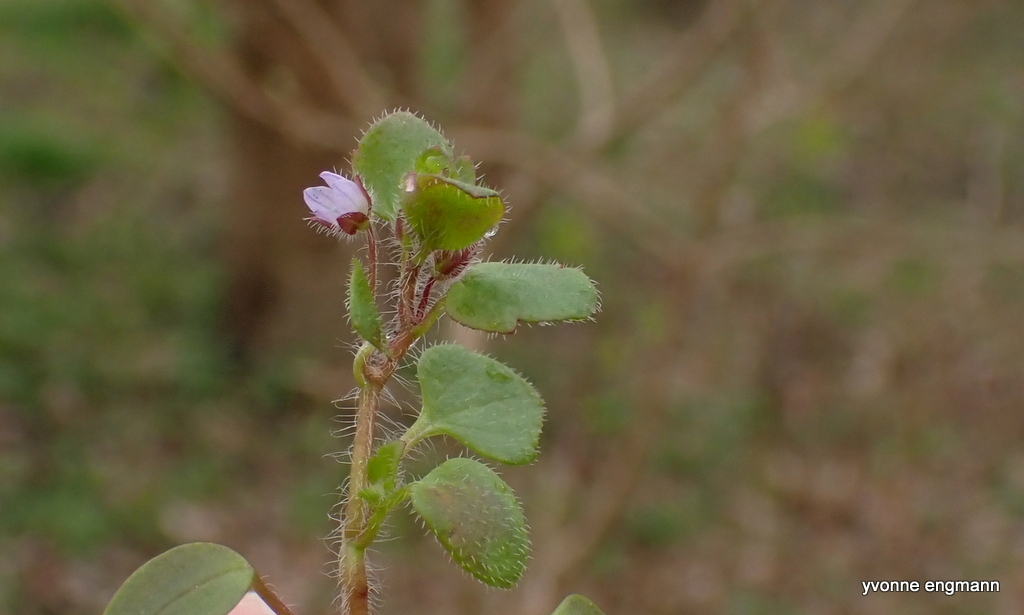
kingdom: Plantae
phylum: Tracheophyta
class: Magnoliopsida
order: Lamiales
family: Plantaginaceae
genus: Veronica
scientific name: Veronica sublobata
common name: False ivy-leaved speedwell
